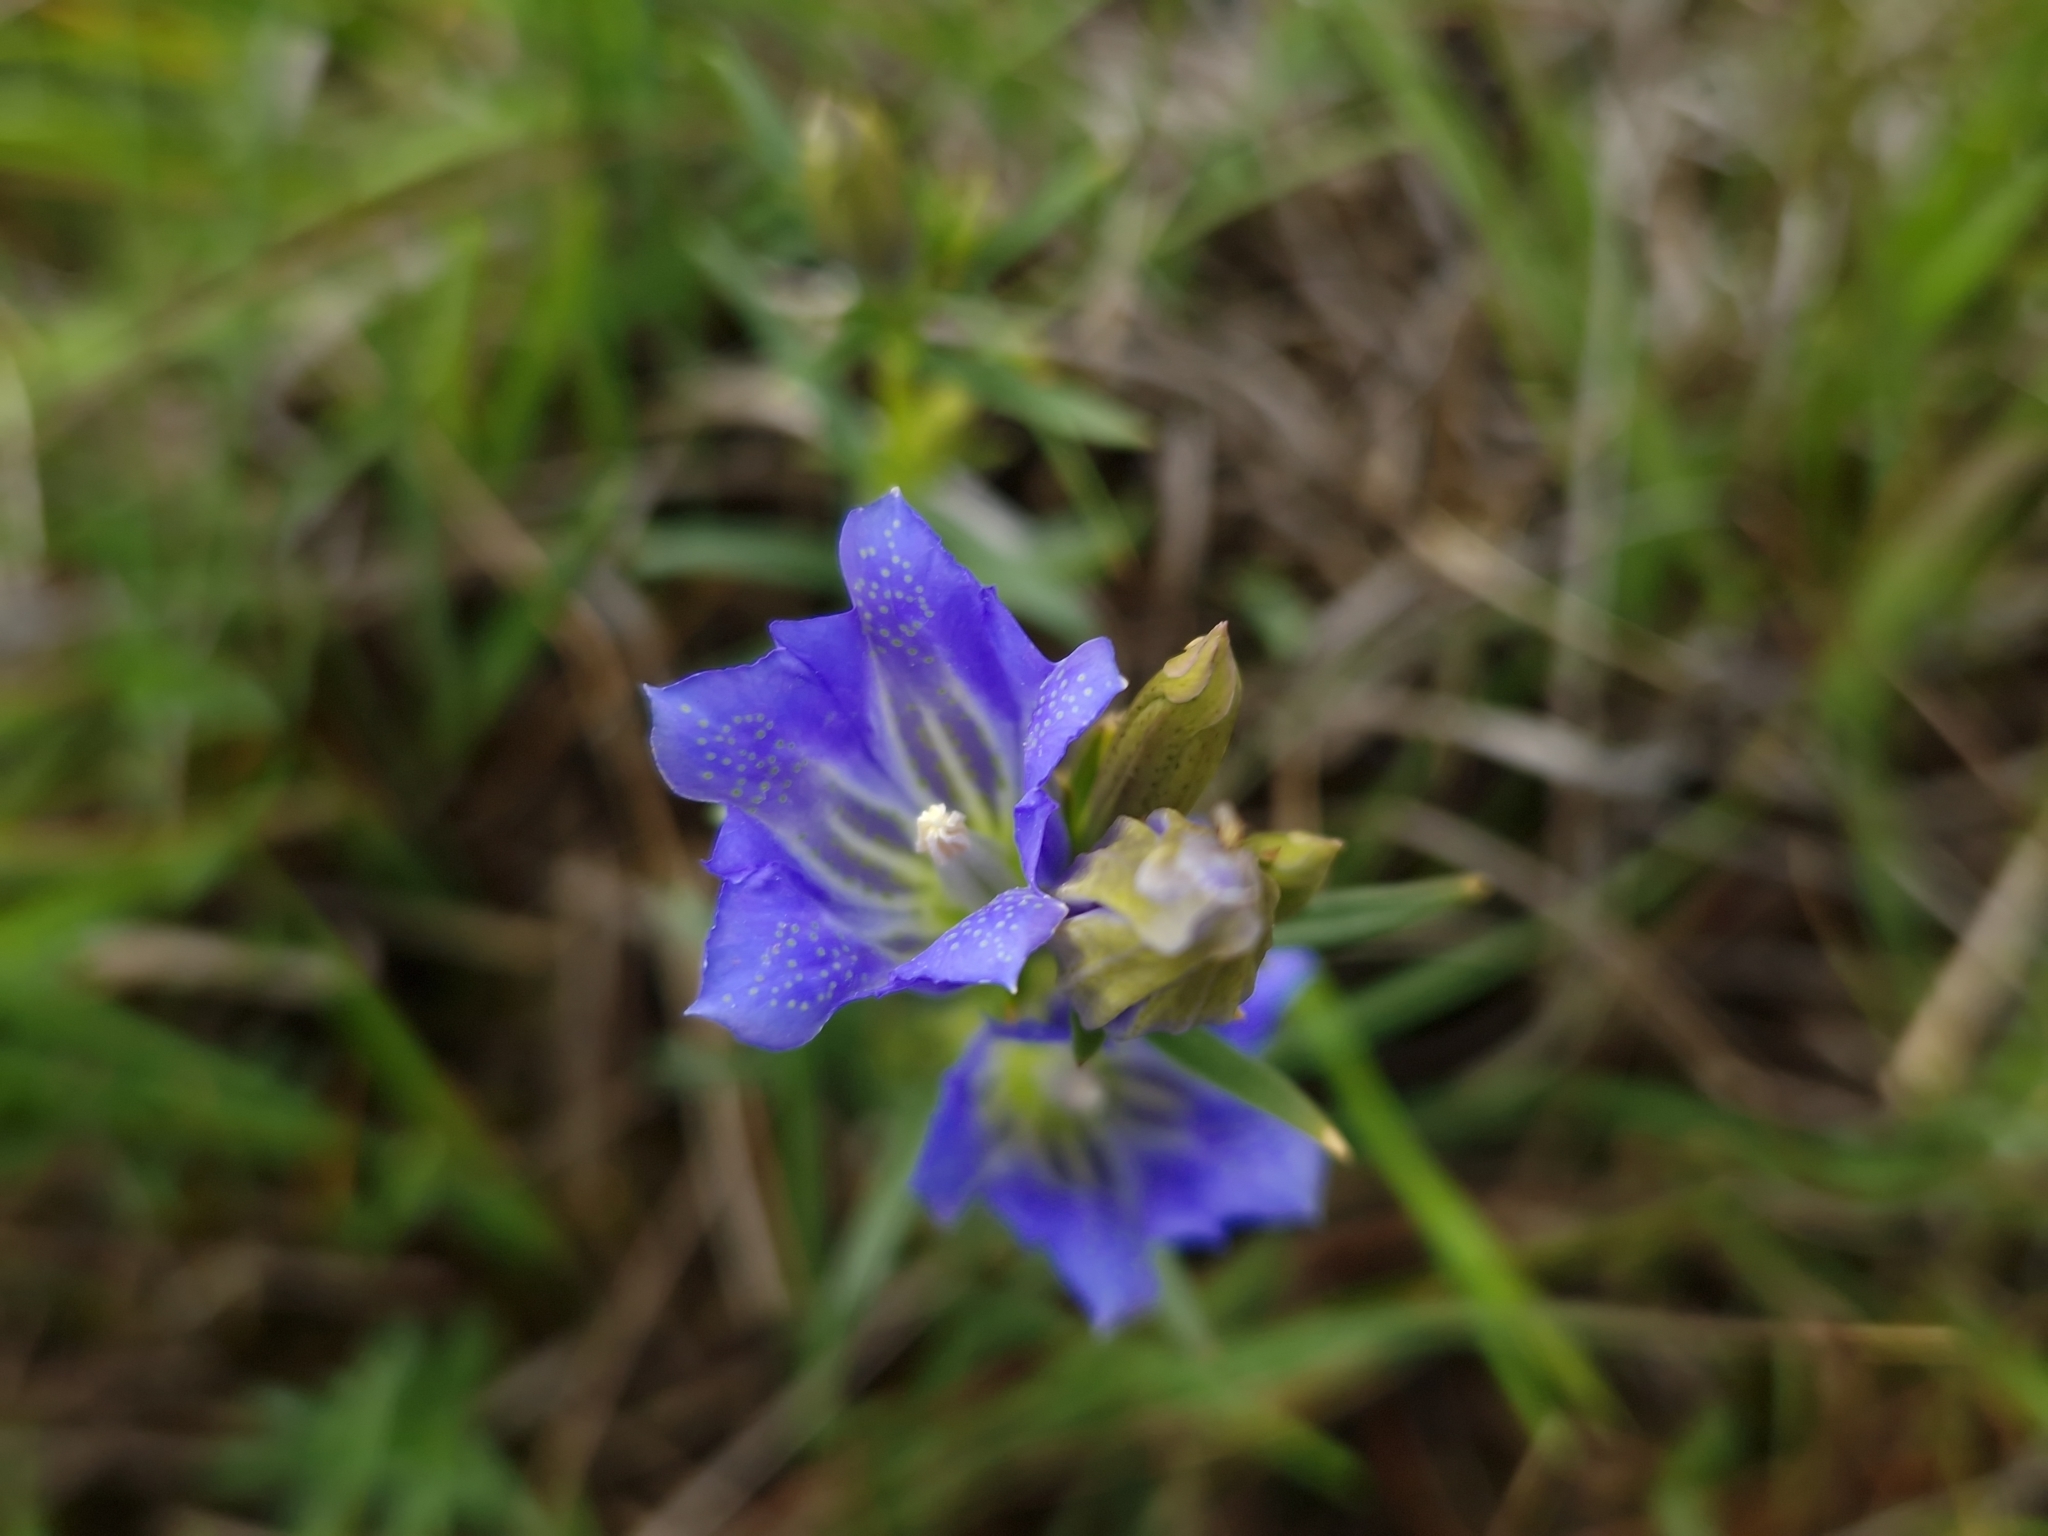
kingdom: Plantae
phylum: Tracheophyta
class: Magnoliopsida
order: Gentianales
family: Gentianaceae
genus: Gentiana
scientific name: Gentiana pneumonanthe
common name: Marsh gentian
